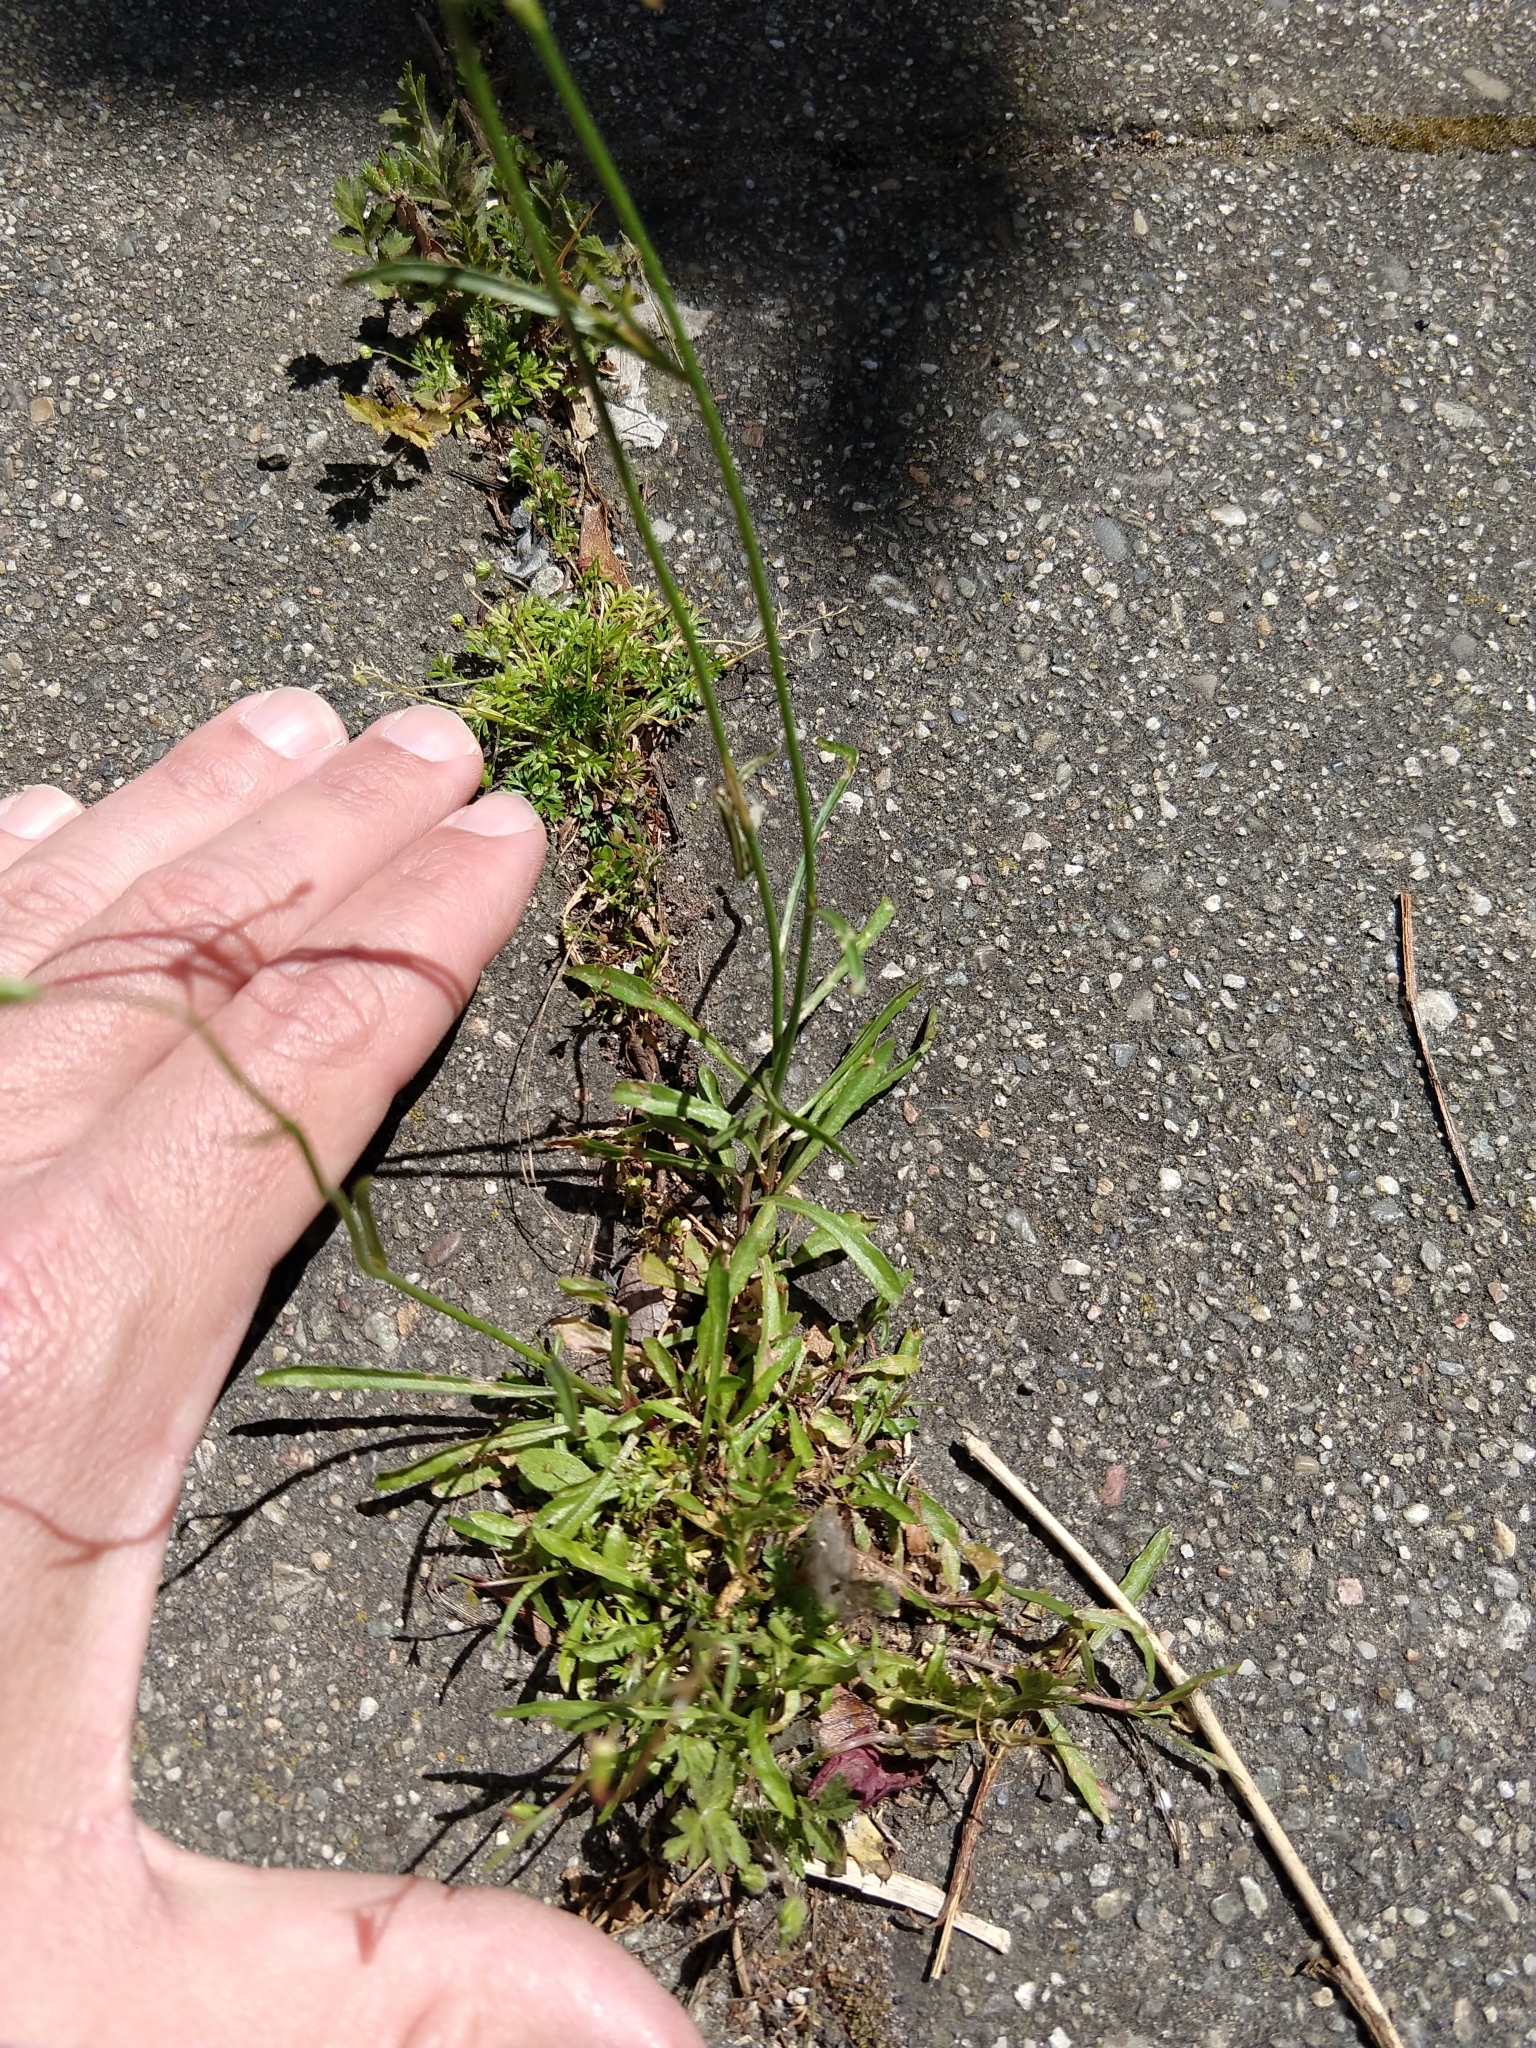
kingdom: Plantae
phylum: Tracheophyta
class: Magnoliopsida
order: Asterales
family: Campanulaceae
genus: Wahlenbergia
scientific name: Wahlenbergia marginata
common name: Southern rockbell
